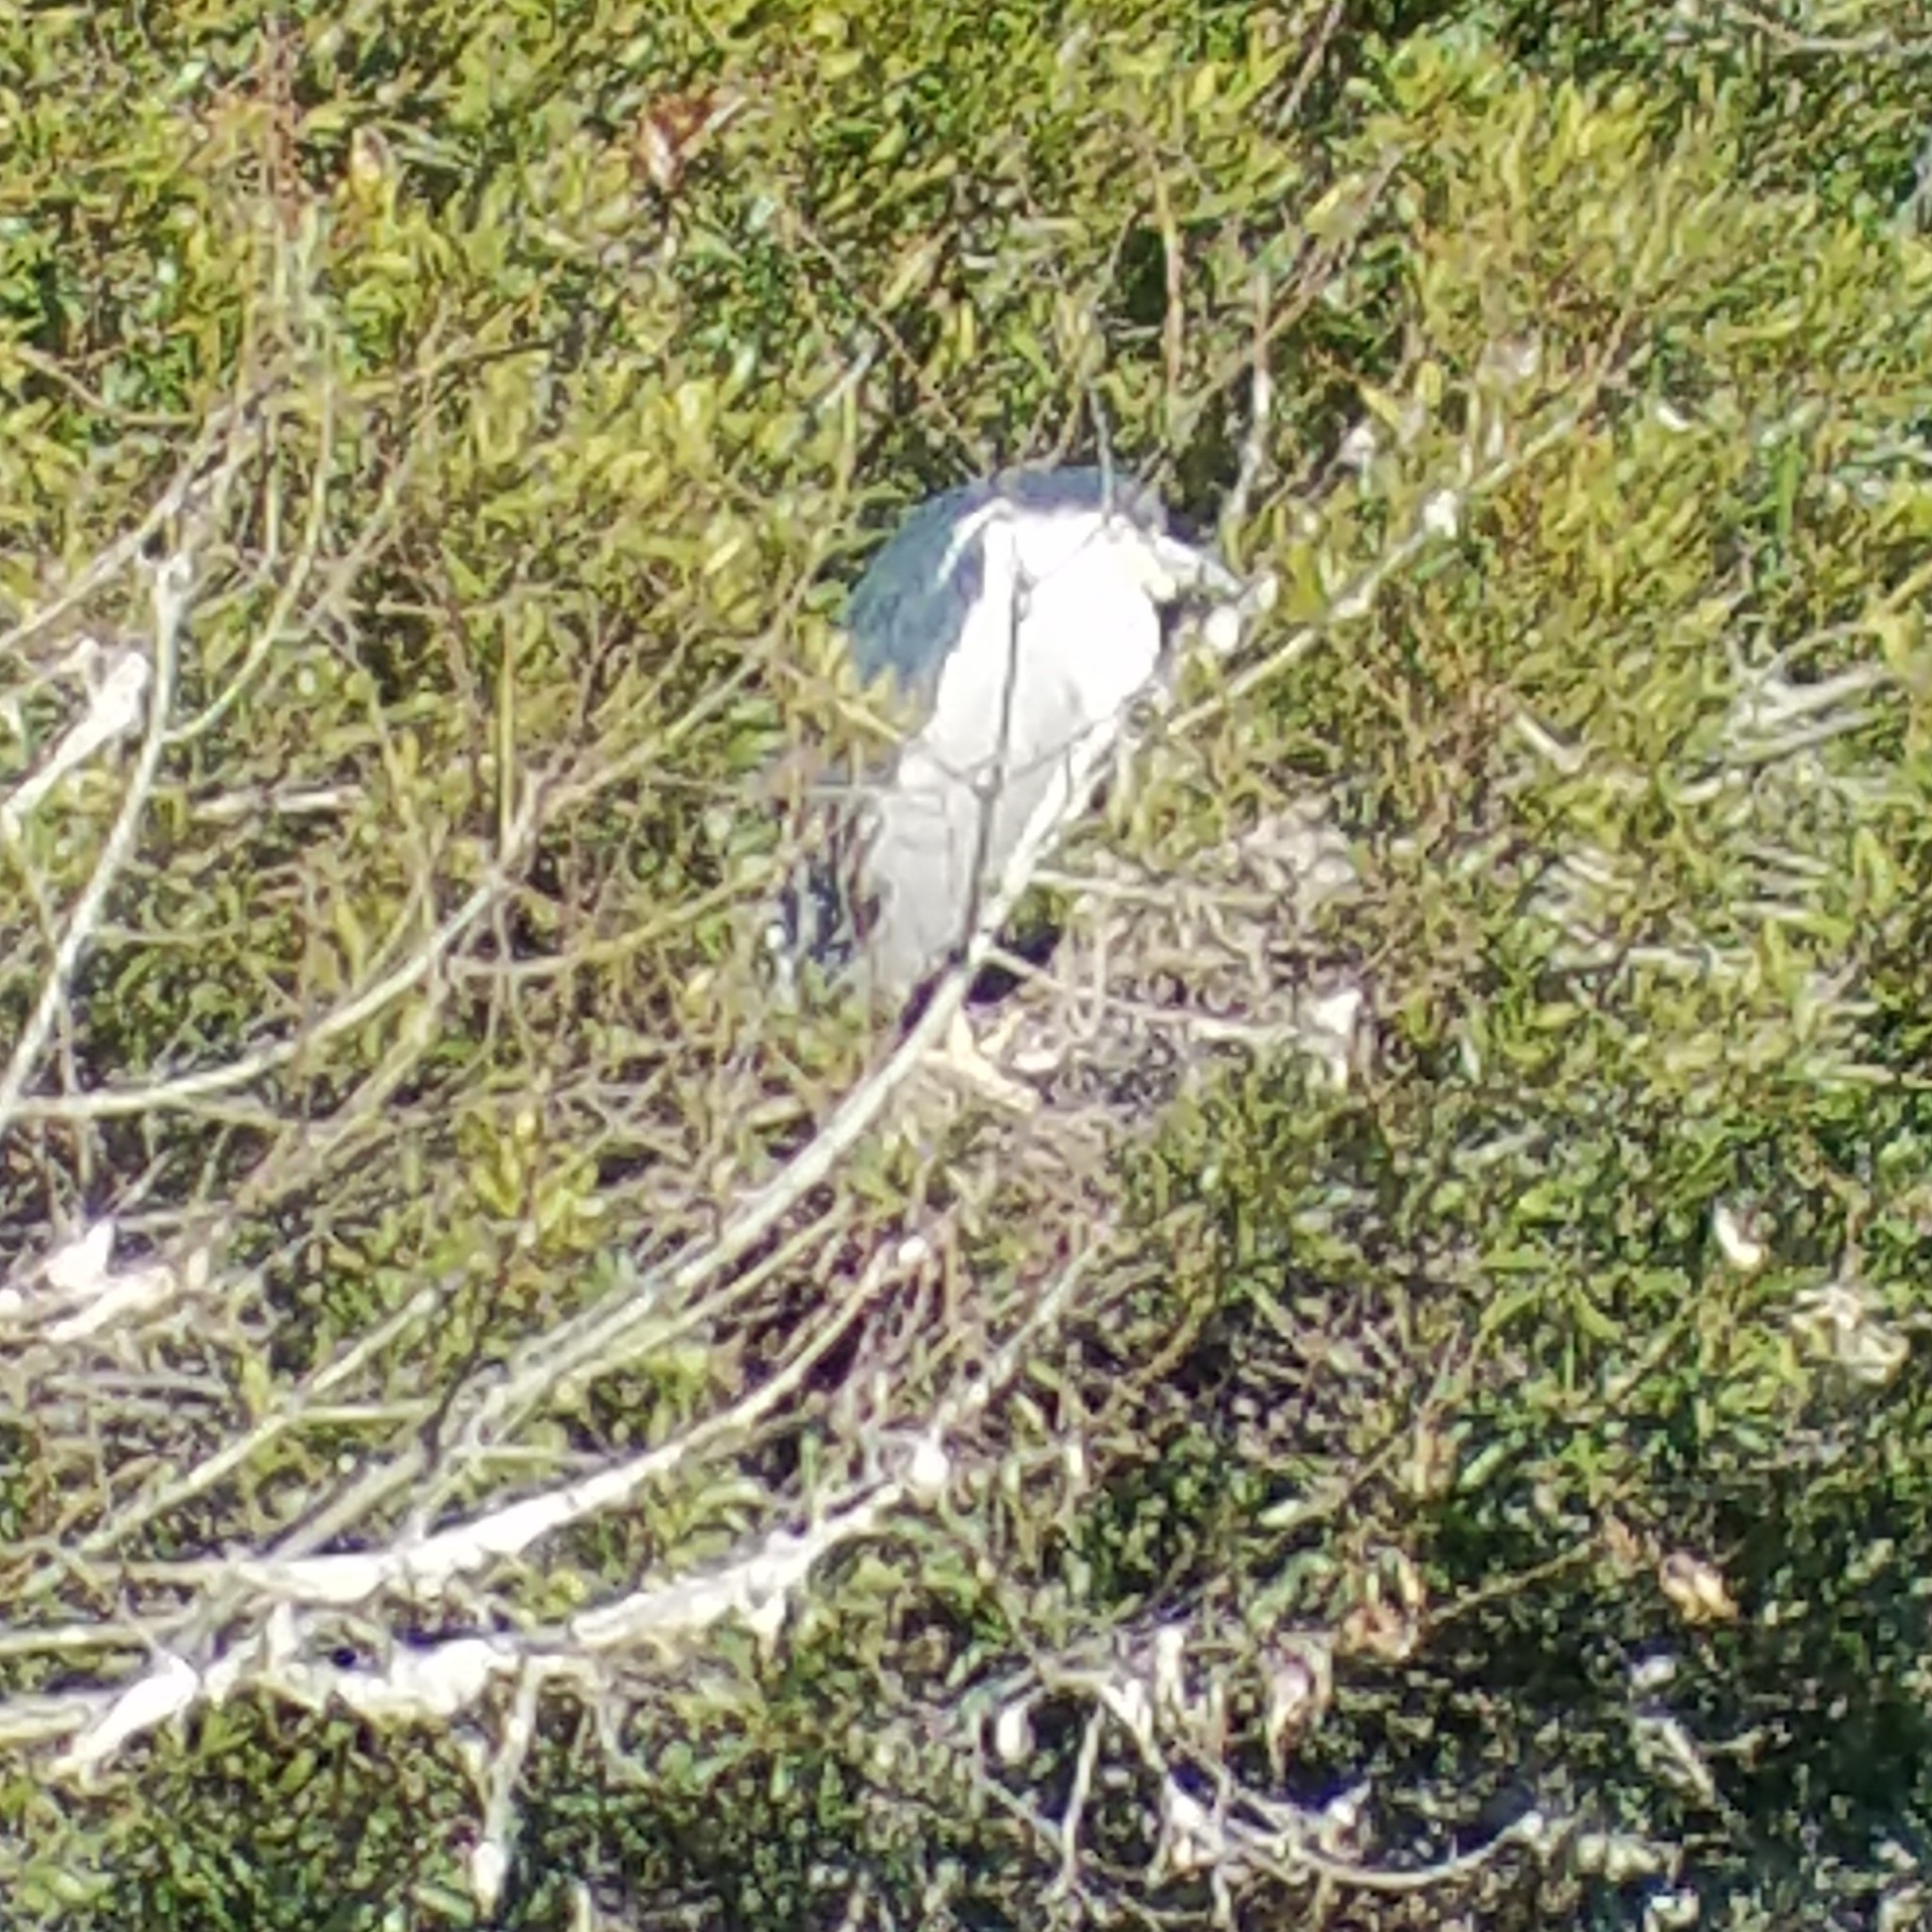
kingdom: Animalia
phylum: Chordata
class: Aves
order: Pelecaniformes
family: Ardeidae
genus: Nycticorax
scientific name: Nycticorax nycticorax
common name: Black-crowned night heron
